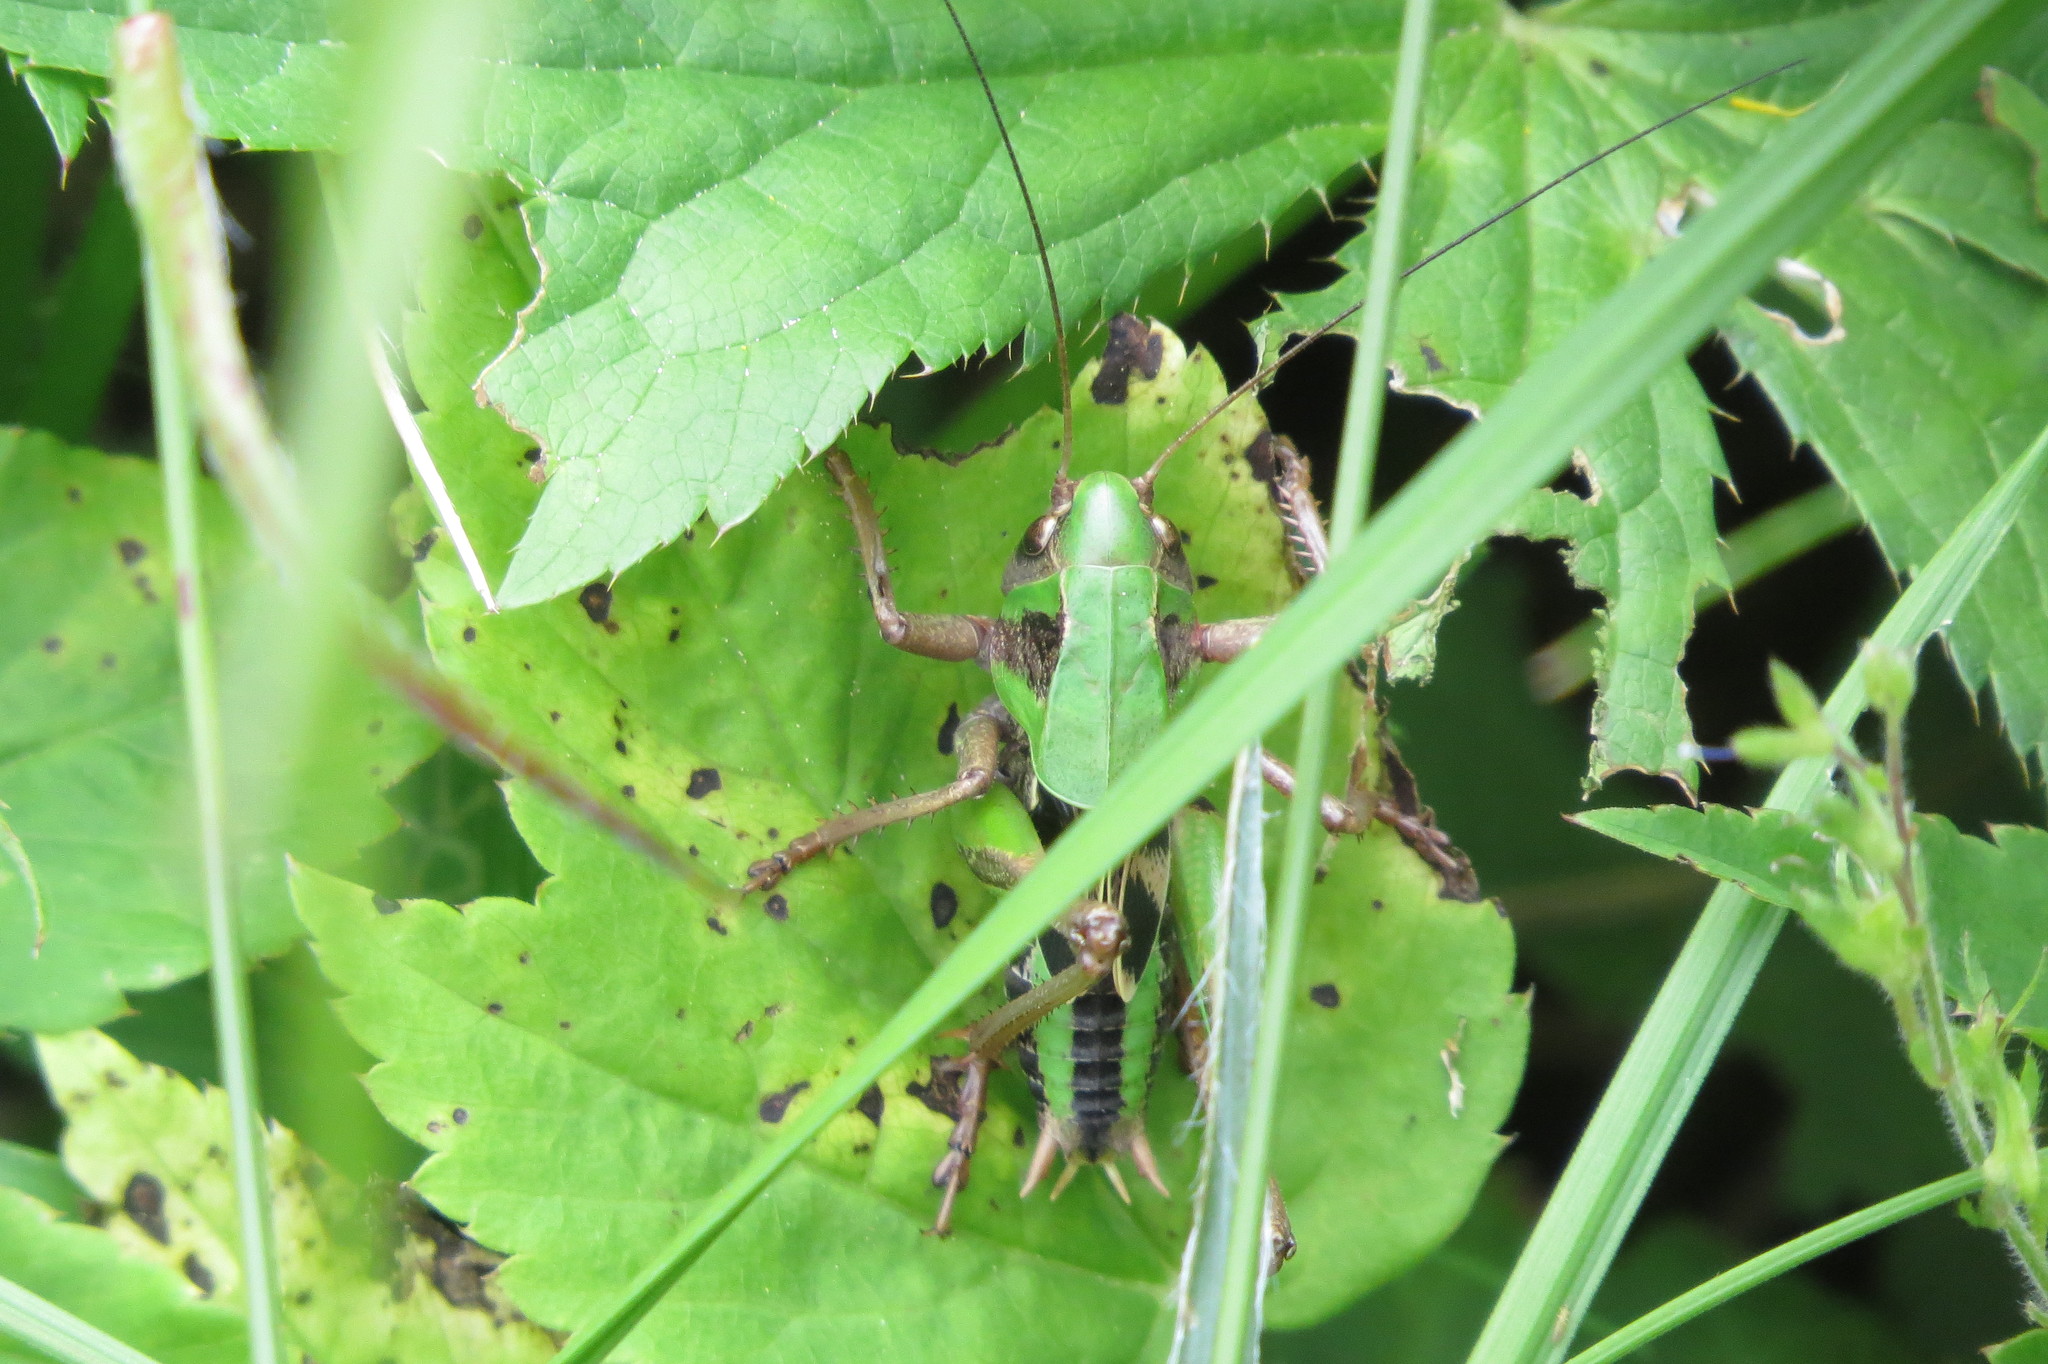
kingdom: Animalia
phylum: Arthropoda
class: Insecta
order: Orthoptera
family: Tettigoniidae
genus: Decticus
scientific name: Decticus verrucivorus
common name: Wart-biter
